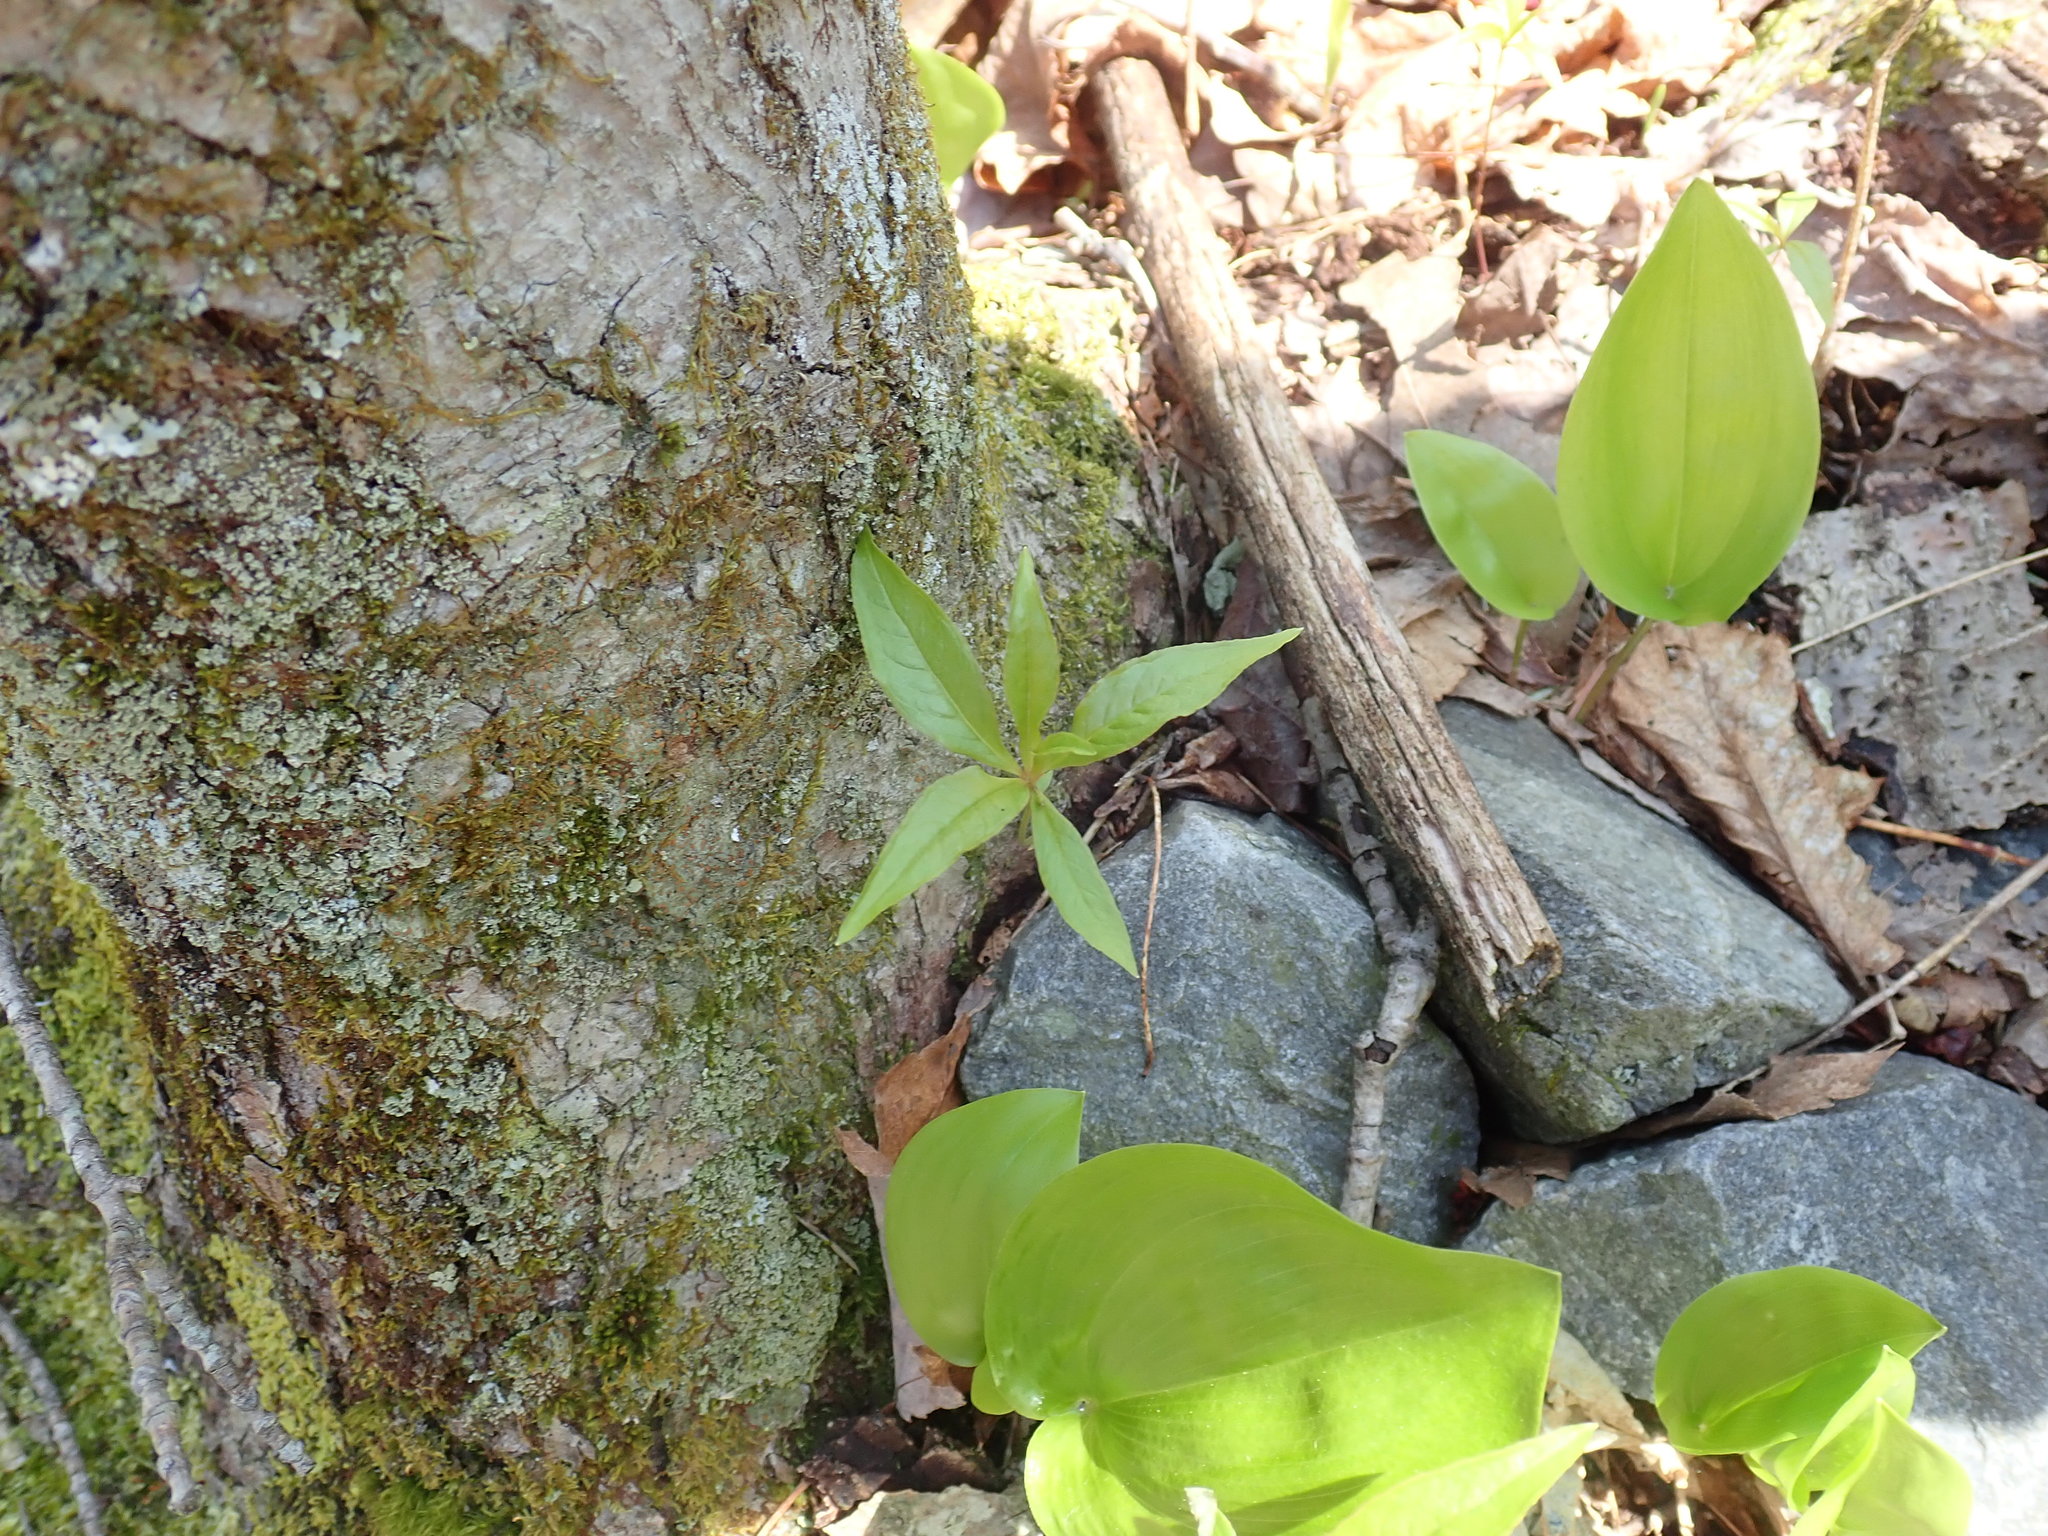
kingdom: Plantae
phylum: Tracheophyta
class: Magnoliopsida
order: Ericales
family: Primulaceae
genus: Lysimachia
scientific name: Lysimachia borealis
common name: American starflower
